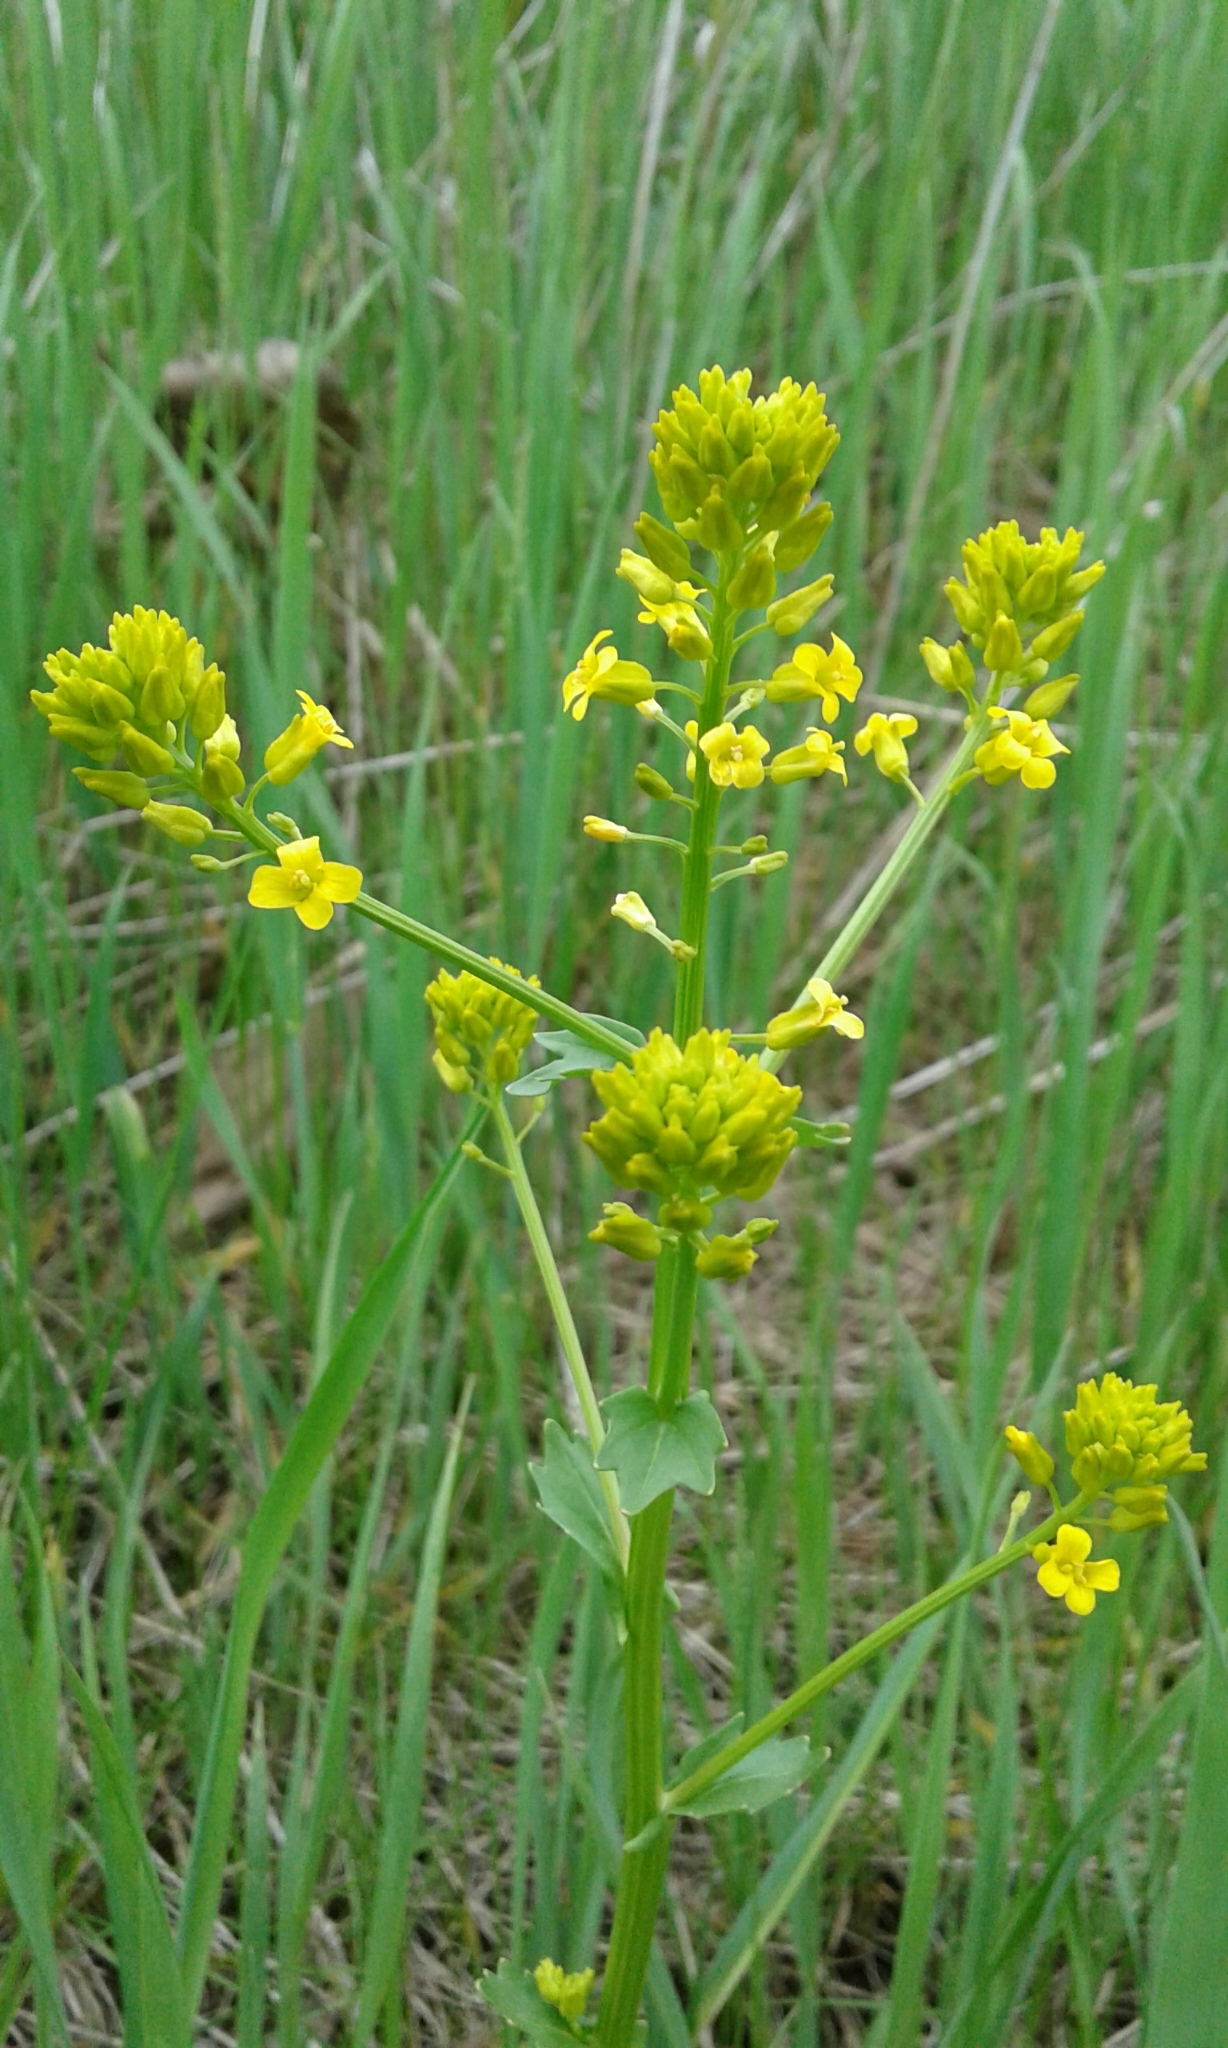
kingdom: Plantae
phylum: Tracheophyta
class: Magnoliopsida
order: Brassicales
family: Brassicaceae
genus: Barbarea
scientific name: Barbarea vulgaris
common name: Cressy-greens
